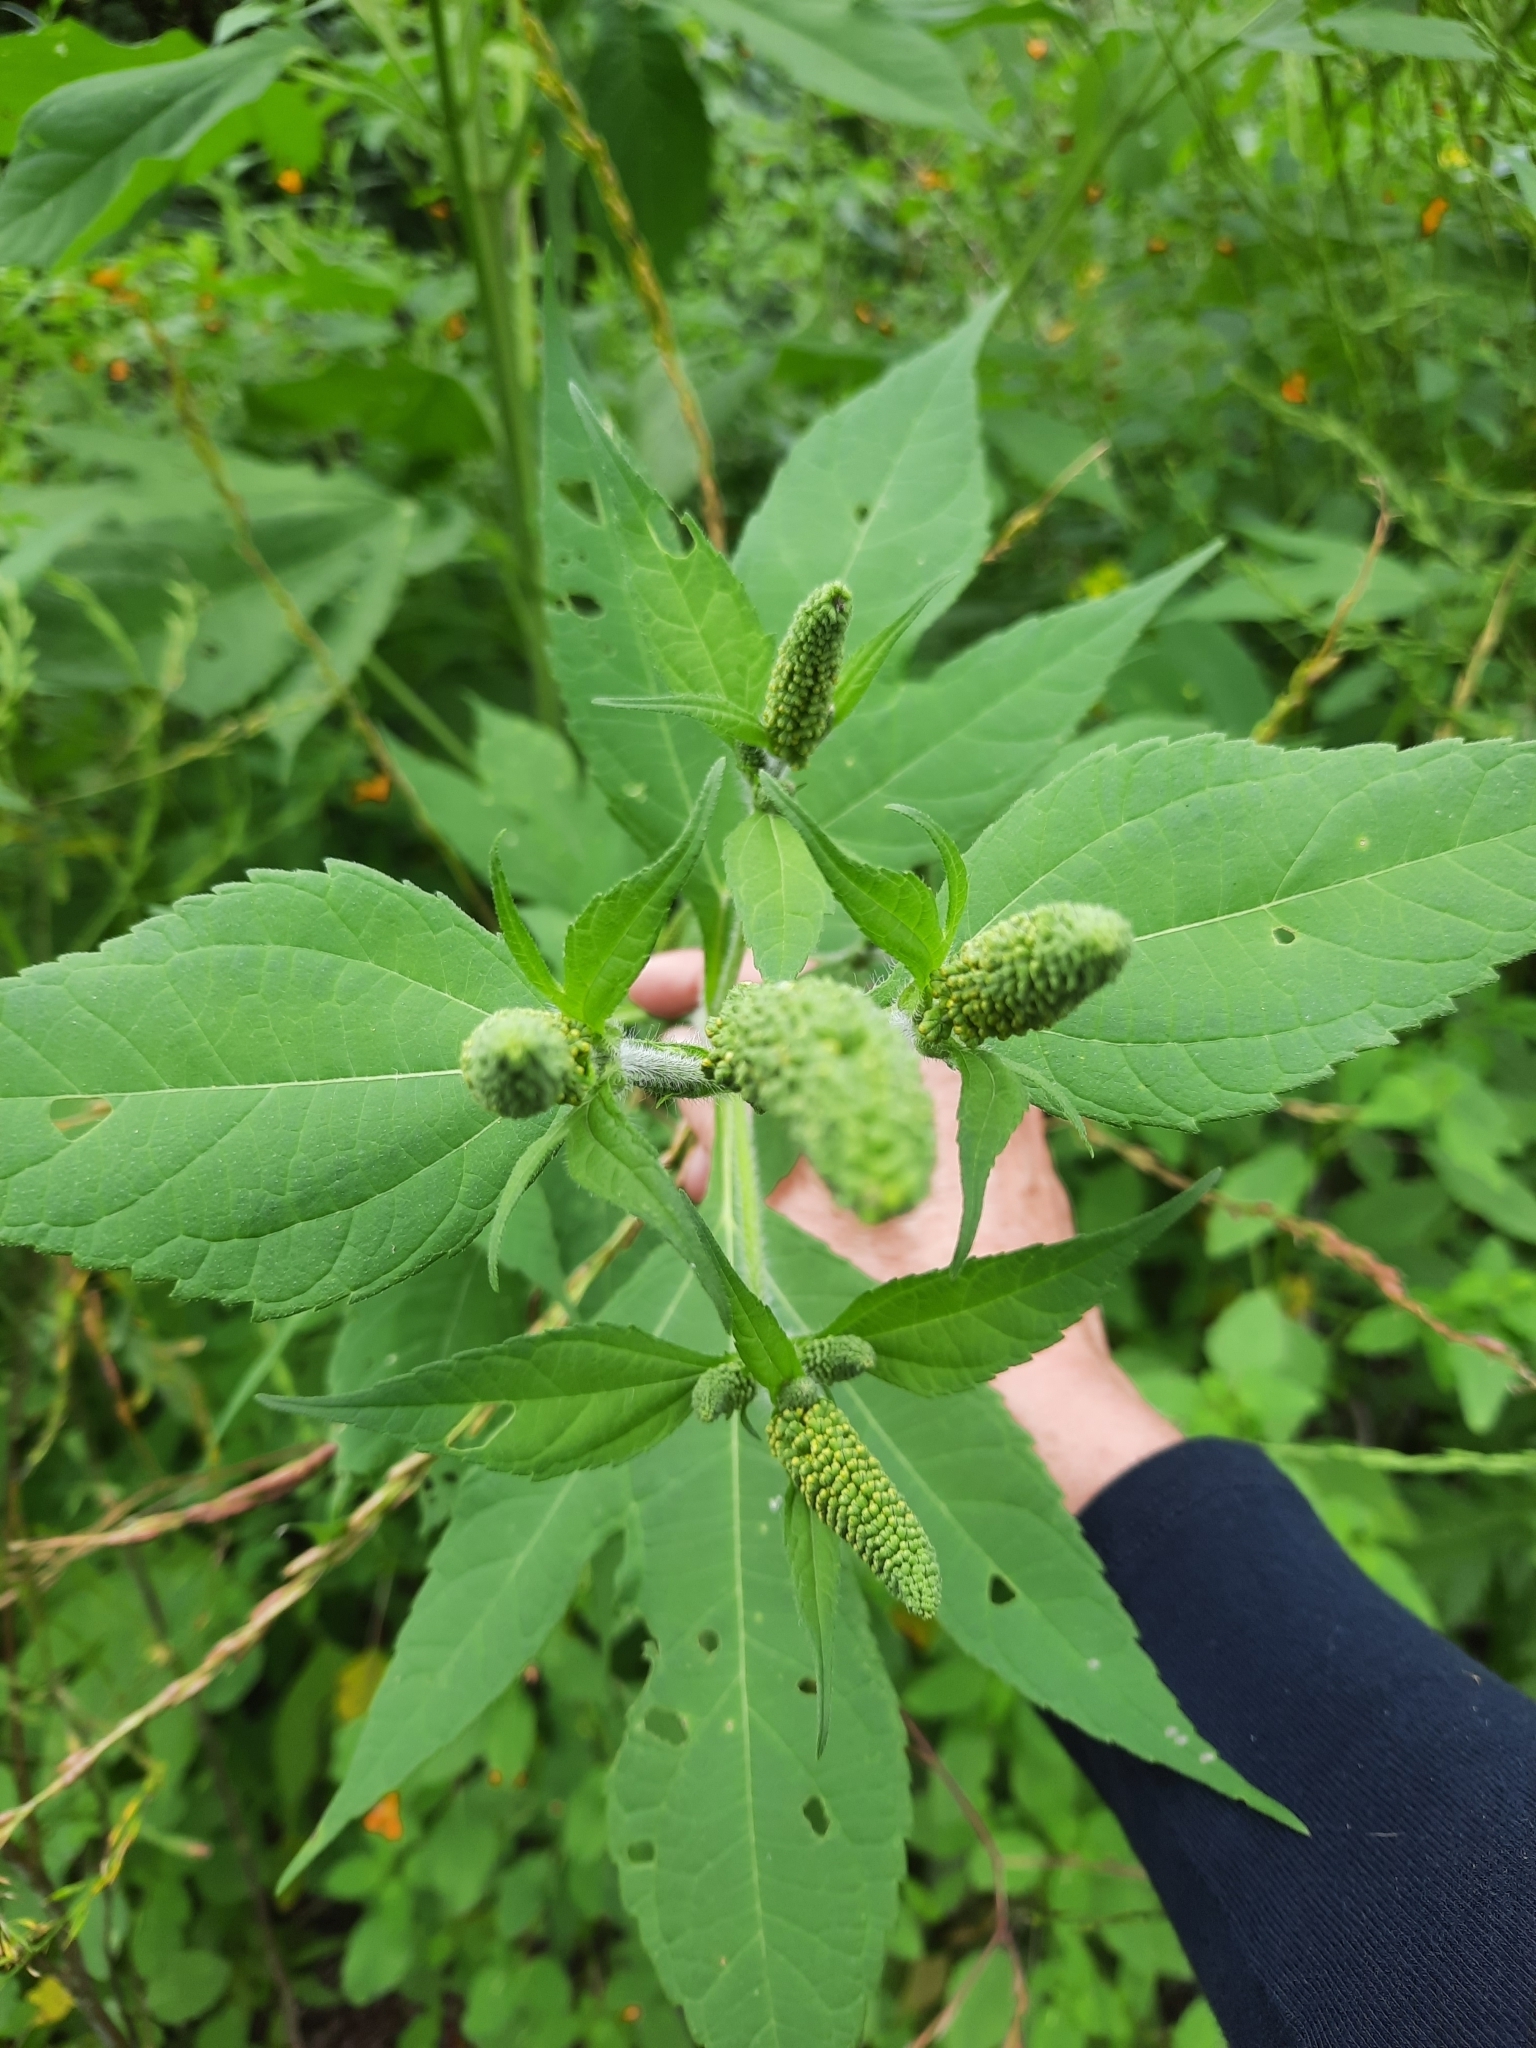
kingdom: Plantae
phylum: Tracheophyta
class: Magnoliopsida
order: Asterales
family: Asteraceae
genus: Ambrosia
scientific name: Ambrosia trifida
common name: Giant ragweed
